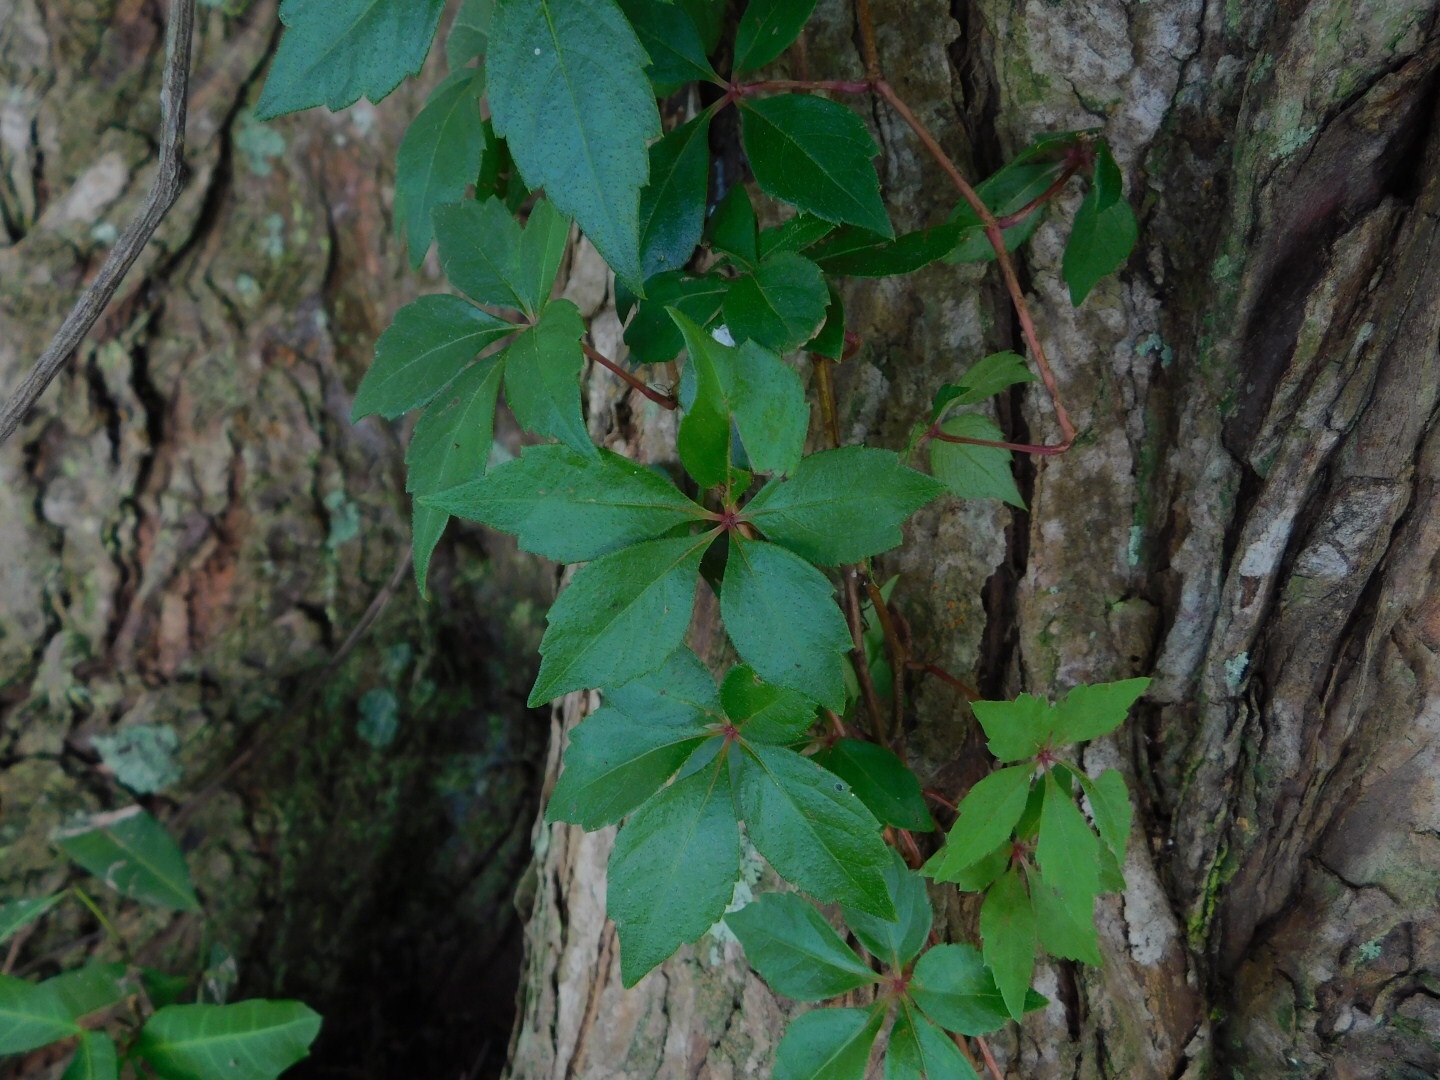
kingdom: Plantae
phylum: Tracheophyta
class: Magnoliopsida
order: Vitales
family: Vitaceae
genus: Parthenocissus
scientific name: Parthenocissus quinquefolia
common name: Virginia-creeper
